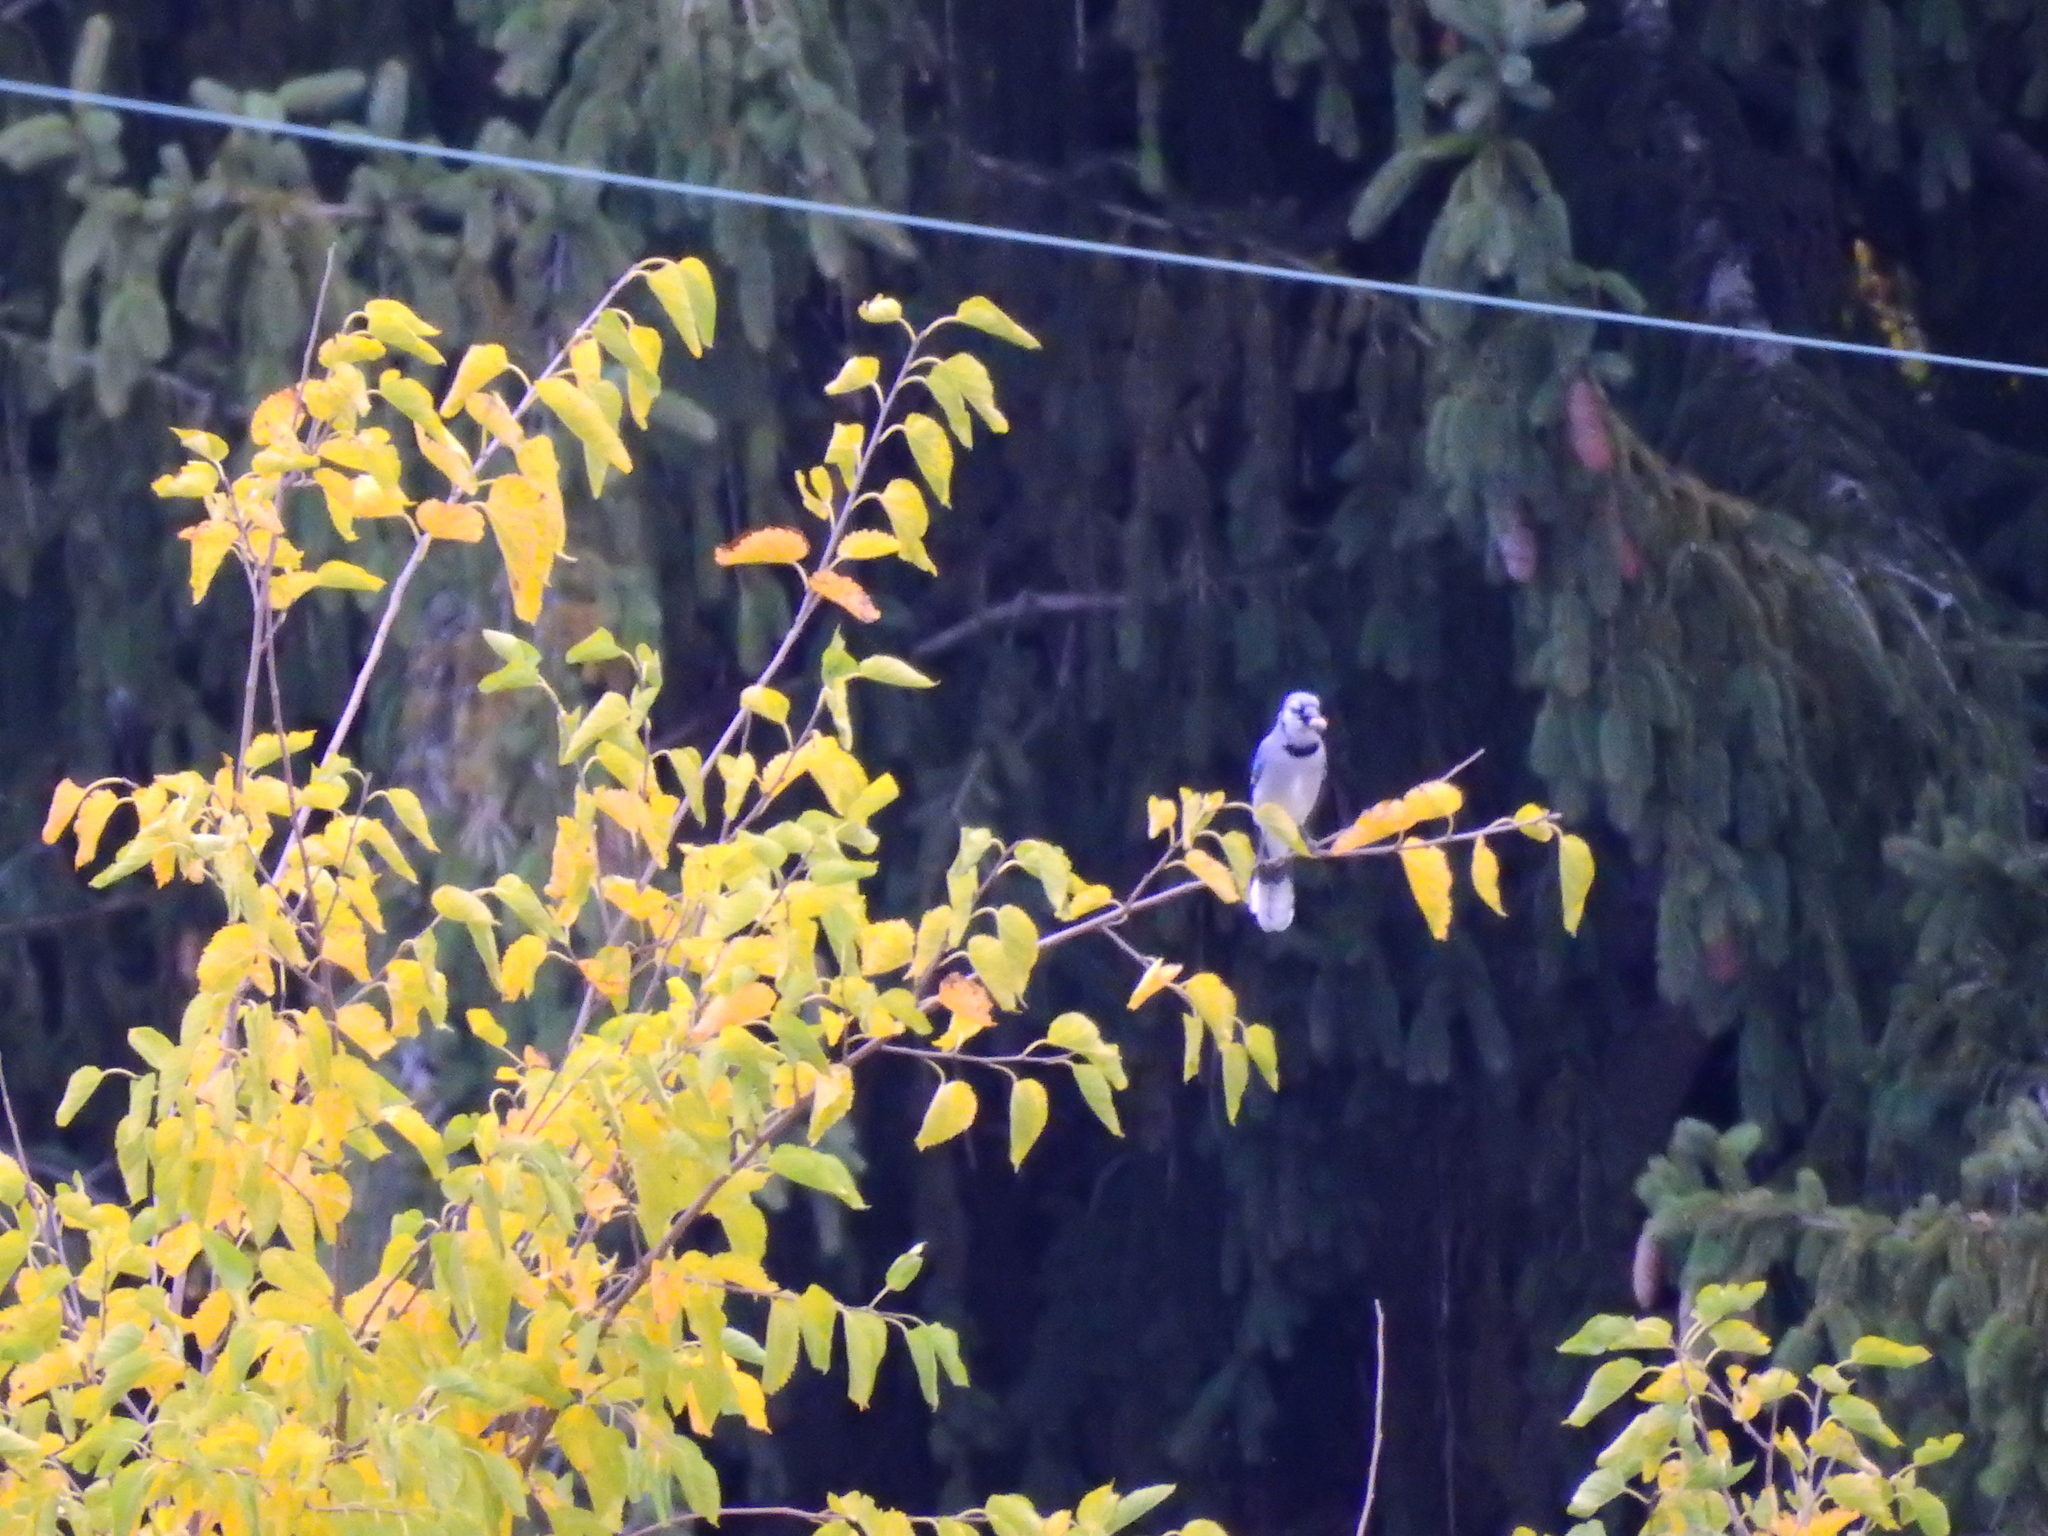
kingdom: Animalia
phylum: Chordata
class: Aves
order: Passeriformes
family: Corvidae
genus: Cyanocitta
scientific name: Cyanocitta cristata
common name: Blue jay
